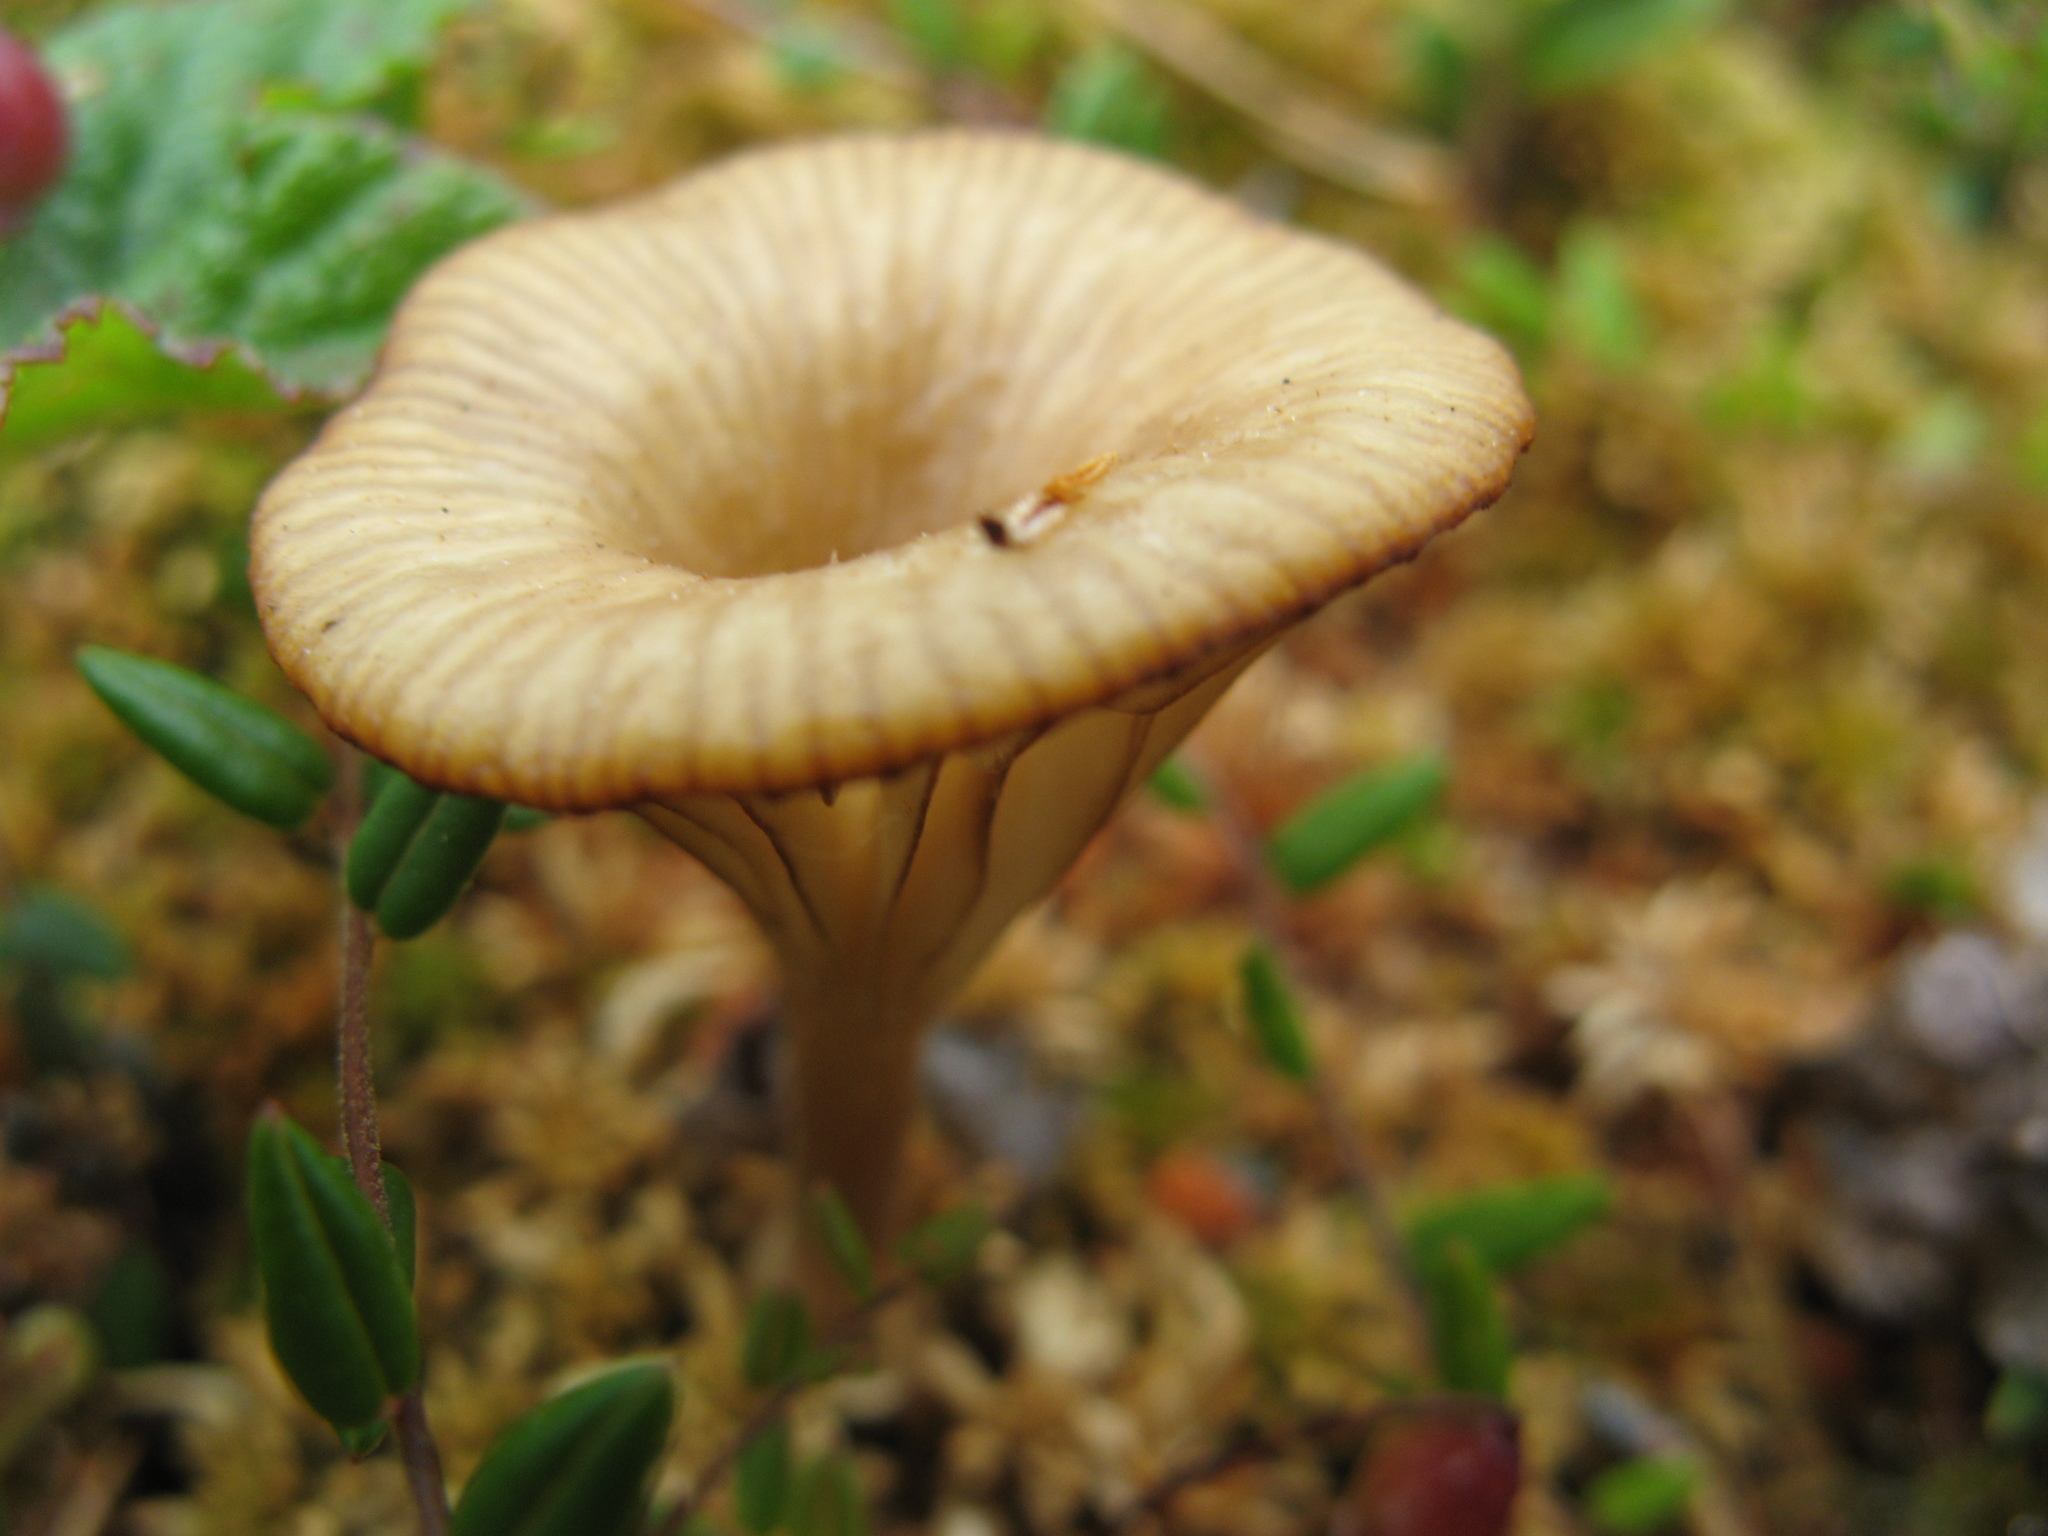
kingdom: Fungi
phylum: Basidiomycota
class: Agaricomycetes
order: Agaricales
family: Hygrophoraceae
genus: Lichenomphalia
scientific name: Lichenomphalia umbellifera
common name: Heath navel
